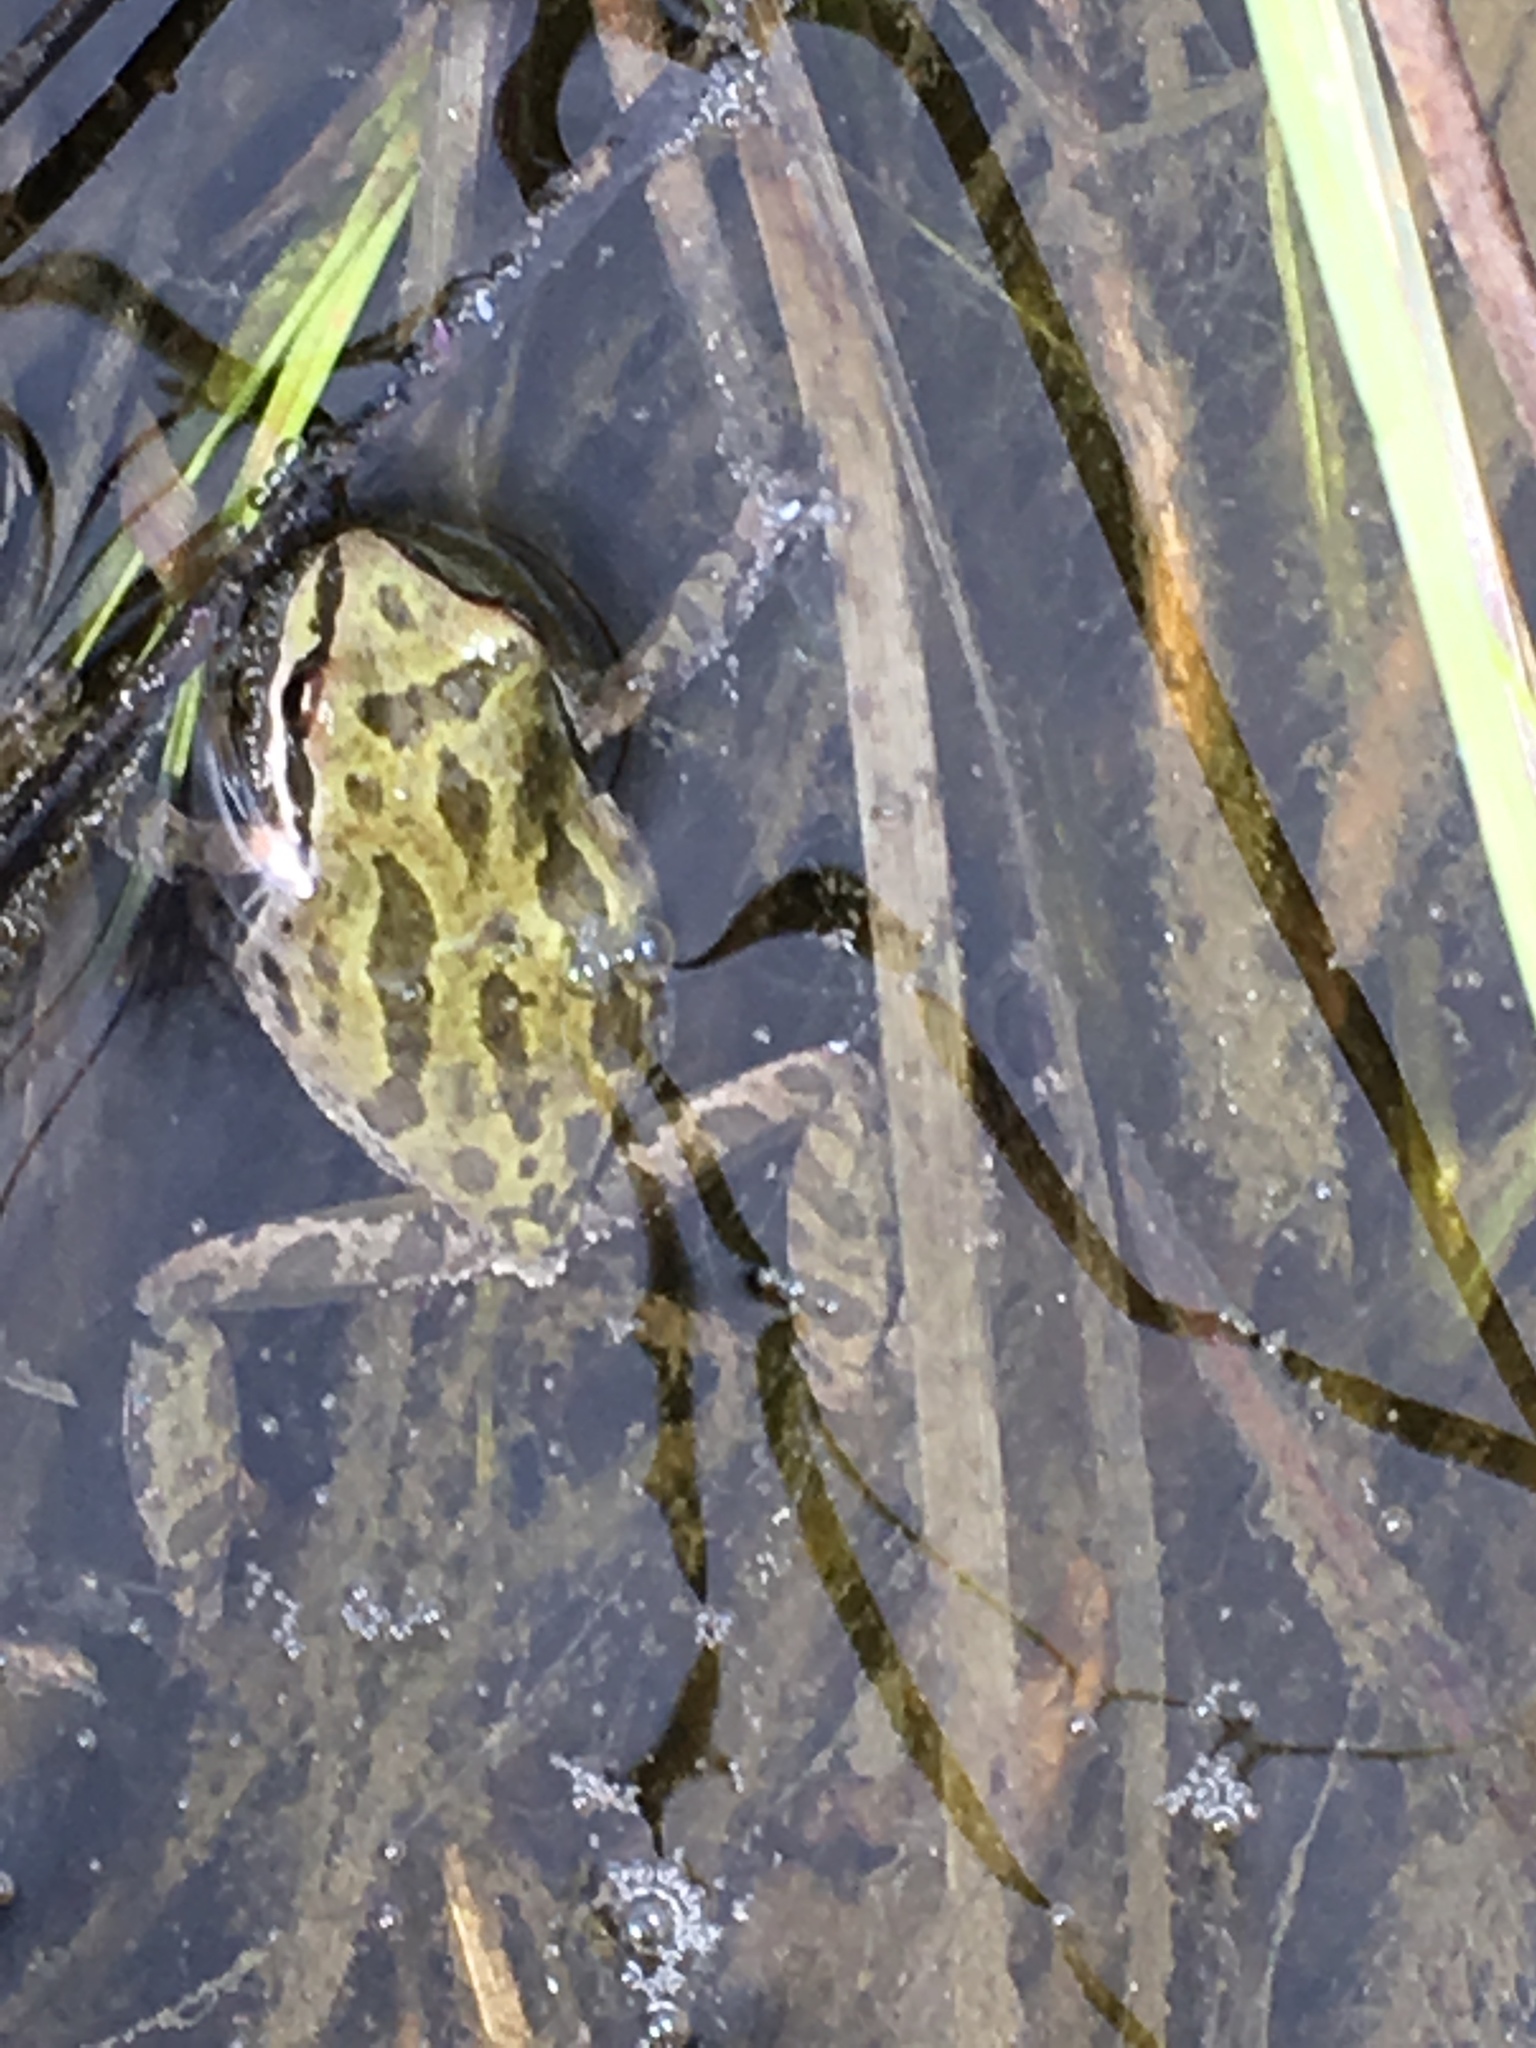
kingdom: Animalia
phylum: Chordata
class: Amphibia
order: Anura
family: Hylidae
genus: Pseudacris
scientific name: Pseudacris regilla
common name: Pacific chorus frog
